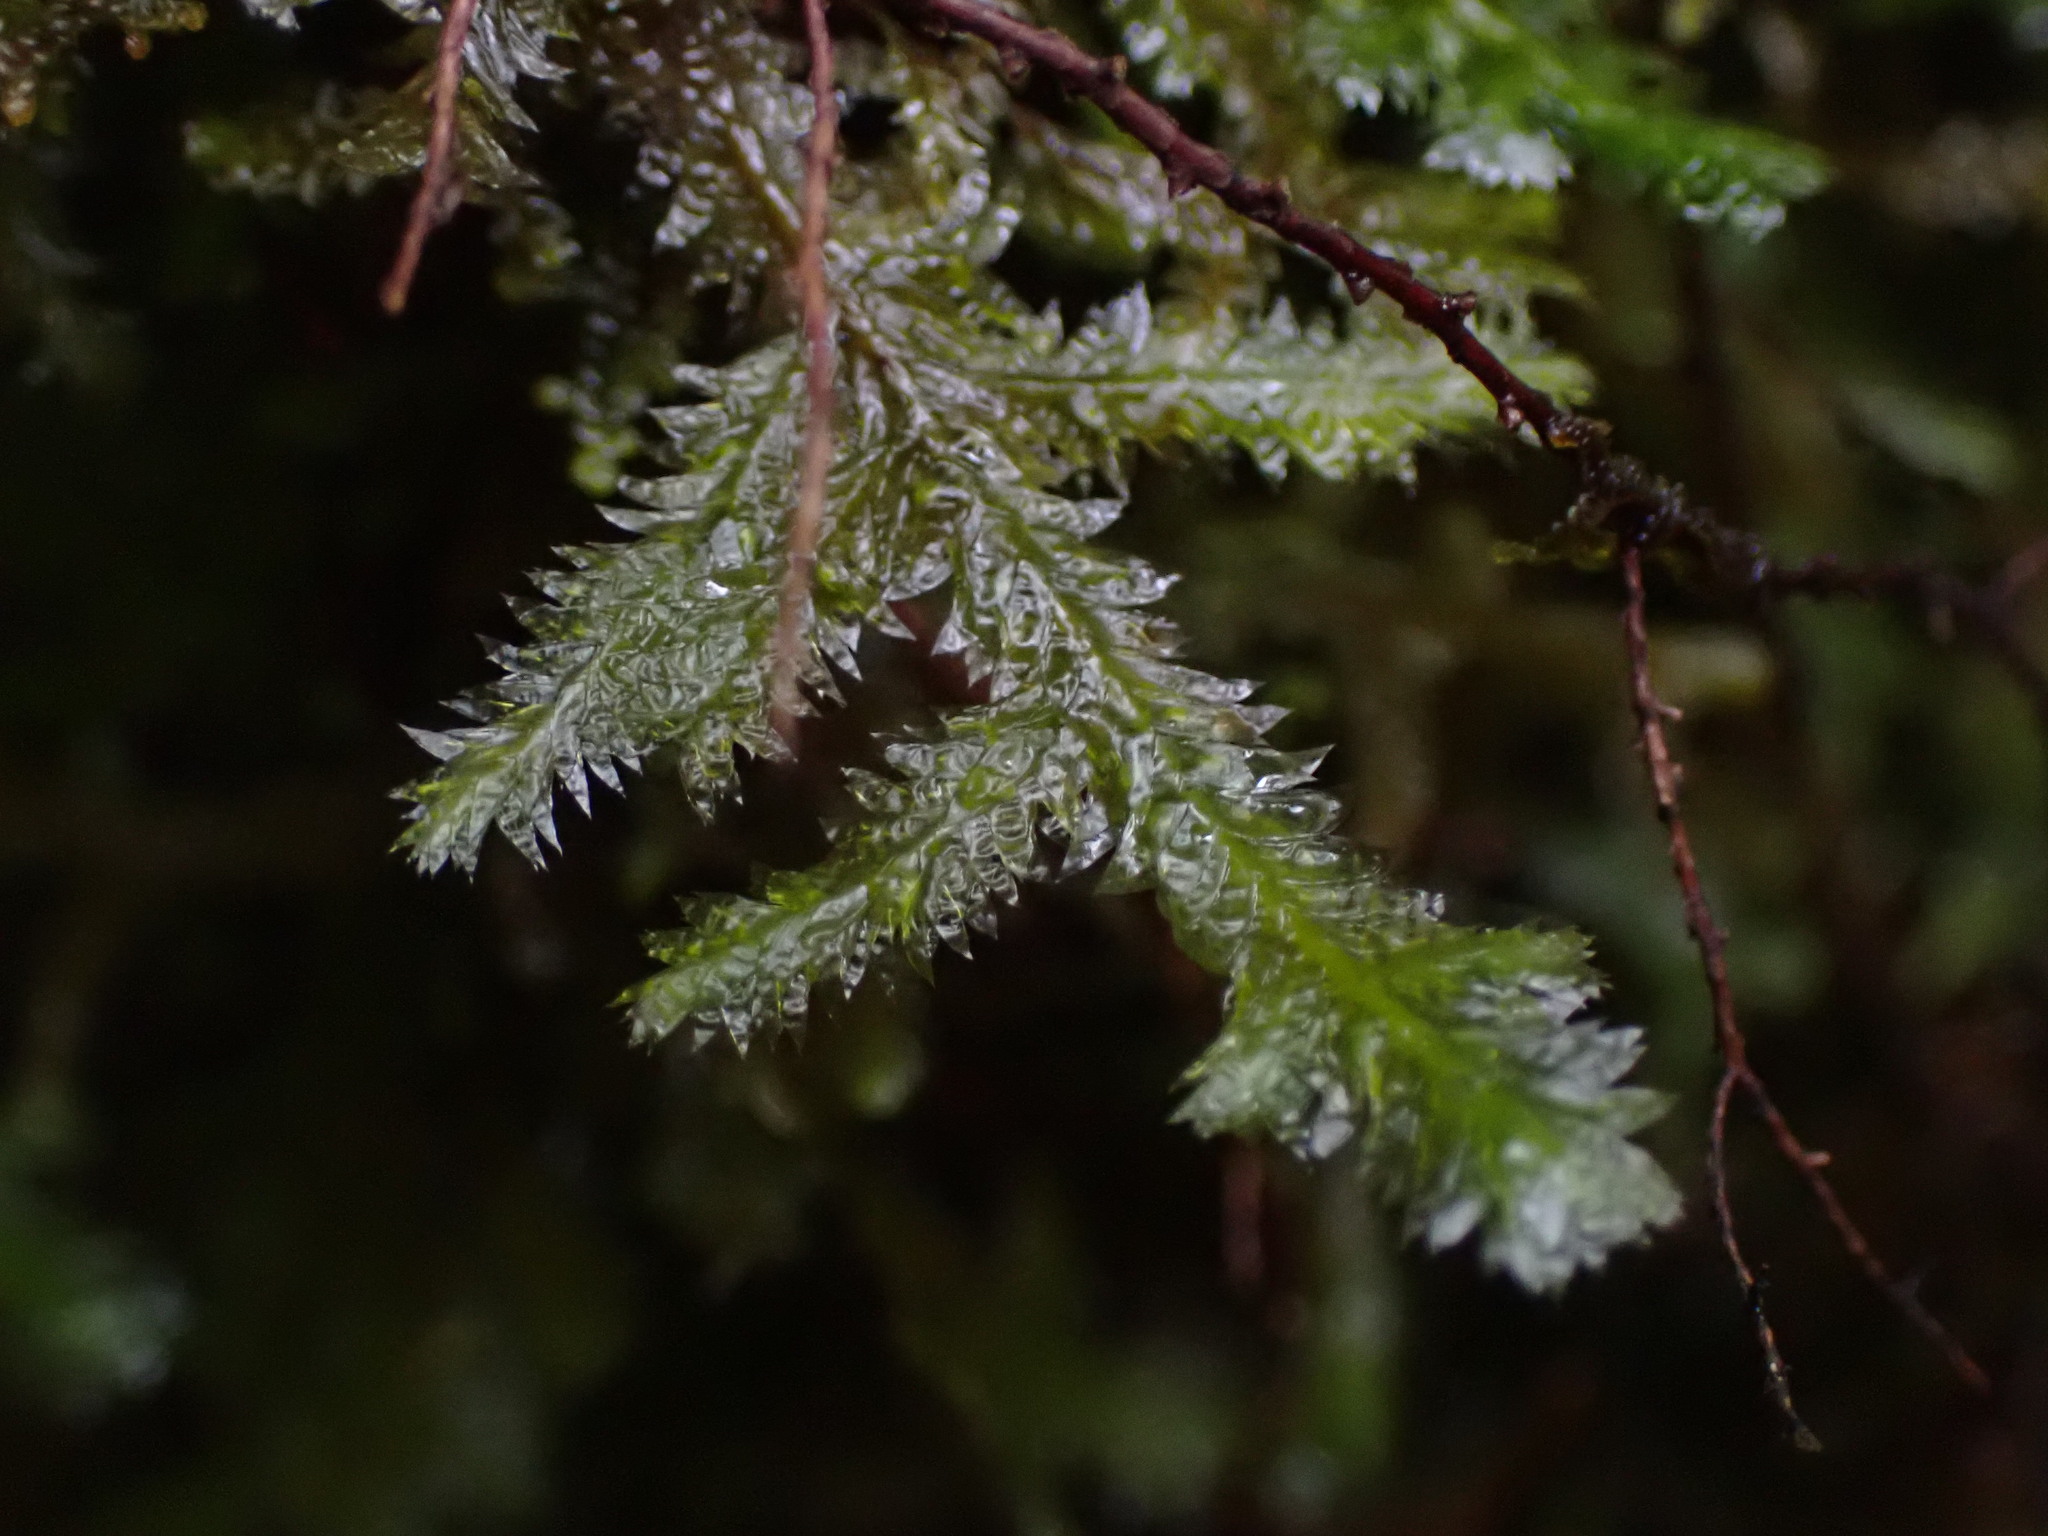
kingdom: Plantae
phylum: Bryophyta
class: Bryopsida
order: Hypnales
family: Neckeraceae
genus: Neckera
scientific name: Neckera pennata
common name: Feathery neckera
